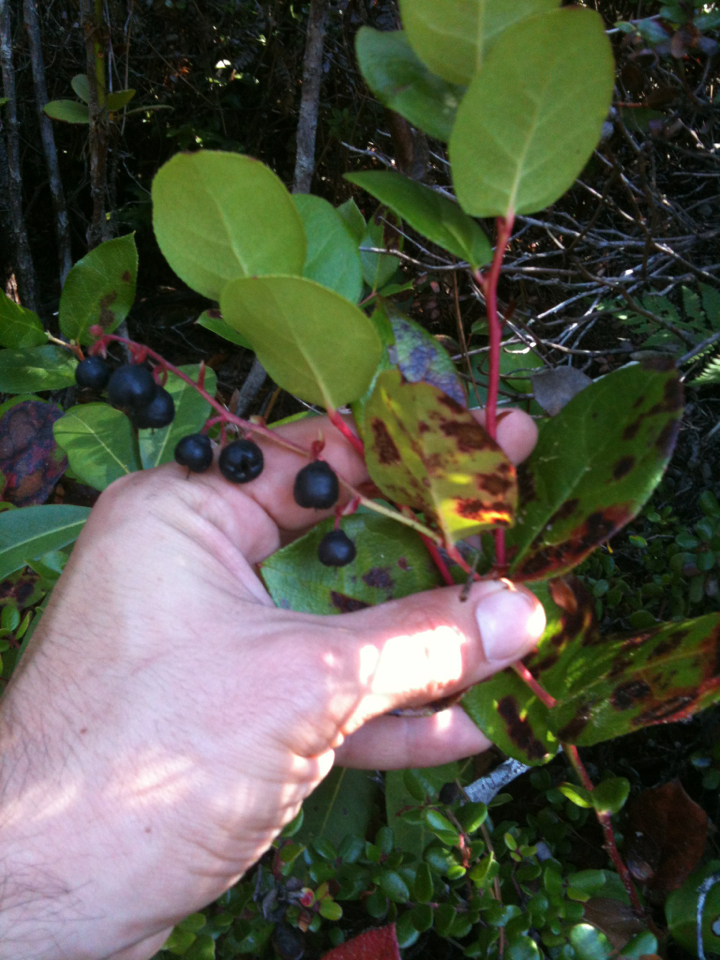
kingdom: Plantae
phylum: Tracheophyta
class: Magnoliopsida
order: Ericales
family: Ericaceae
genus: Gaultheria
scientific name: Gaultheria shallon
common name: Shallon
